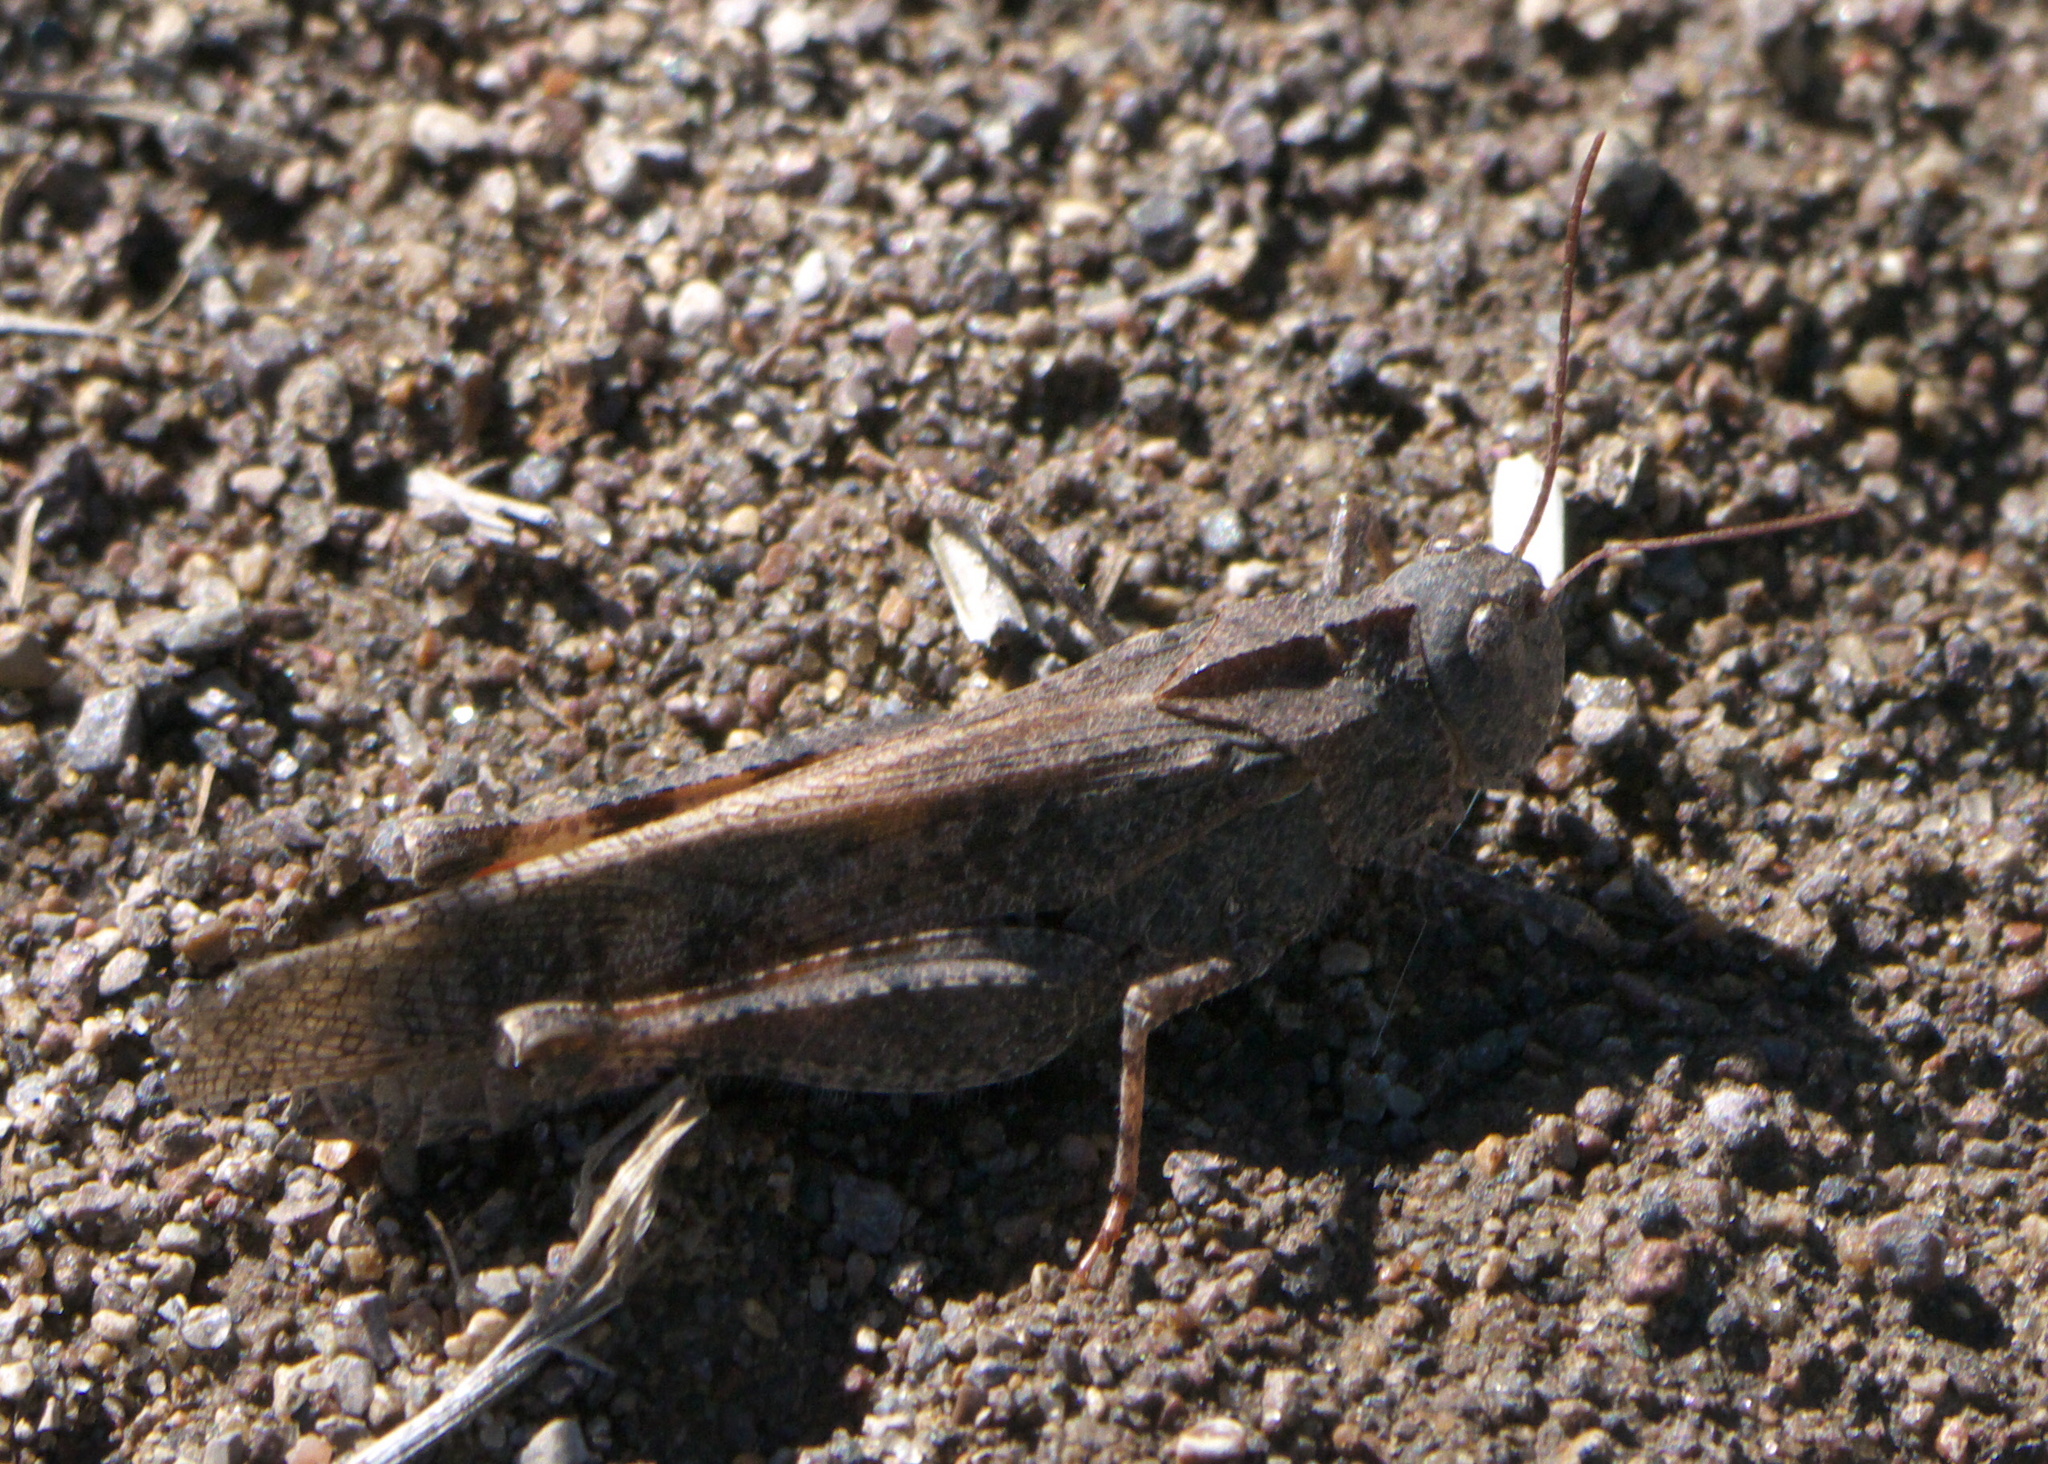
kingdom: Animalia
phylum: Arthropoda
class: Insecta
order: Orthoptera
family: Acrididae
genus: Spharagemon
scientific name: Spharagemon collare
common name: Mottled sand grasshopper
